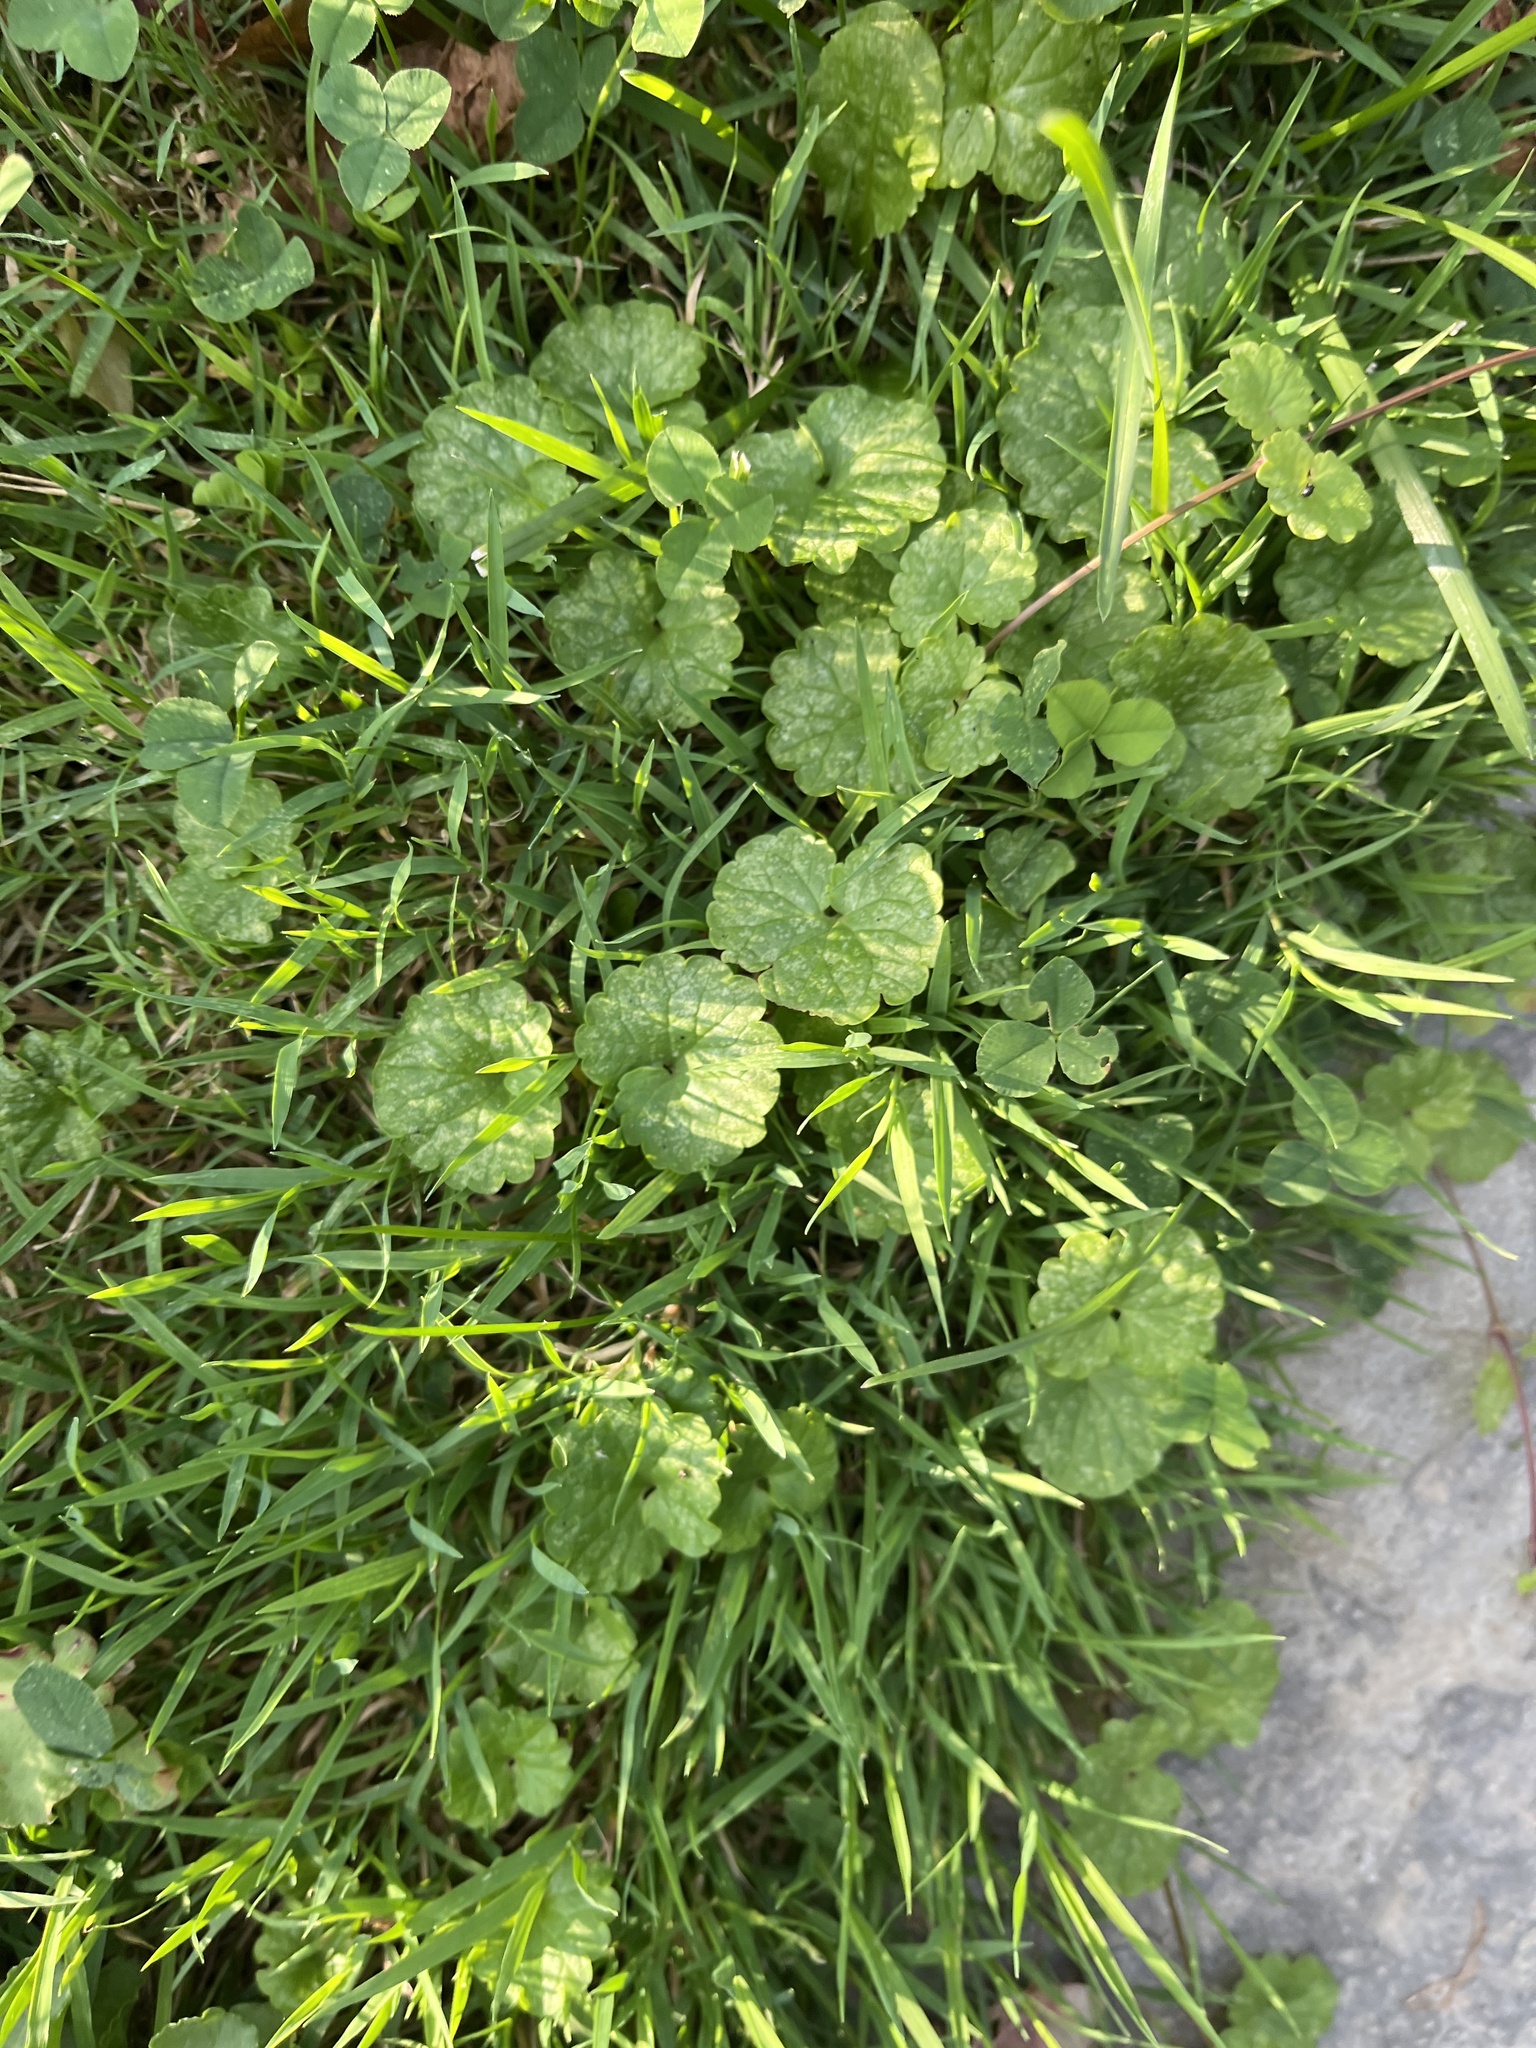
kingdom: Plantae
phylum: Tracheophyta
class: Magnoliopsida
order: Lamiales
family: Lamiaceae
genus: Glechoma
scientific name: Glechoma hederacea
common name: Ground ivy
